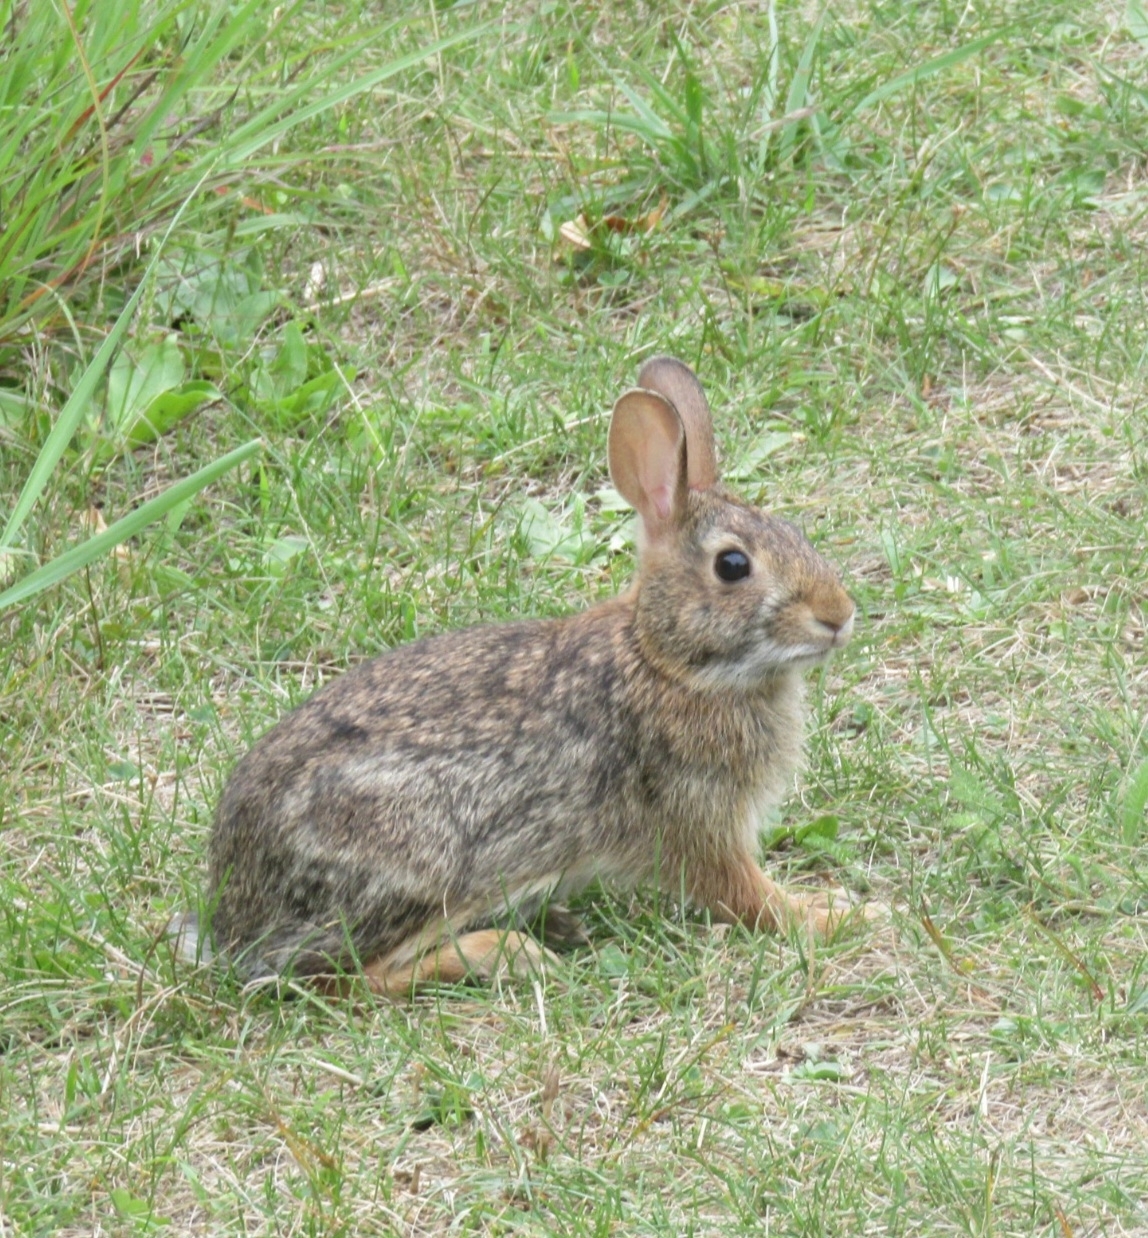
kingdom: Animalia
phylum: Chordata
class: Mammalia
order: Lagomorpha
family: Leporidae
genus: Sylvilagus
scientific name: Sylvilagus floridanus
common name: Eastern cottontail
